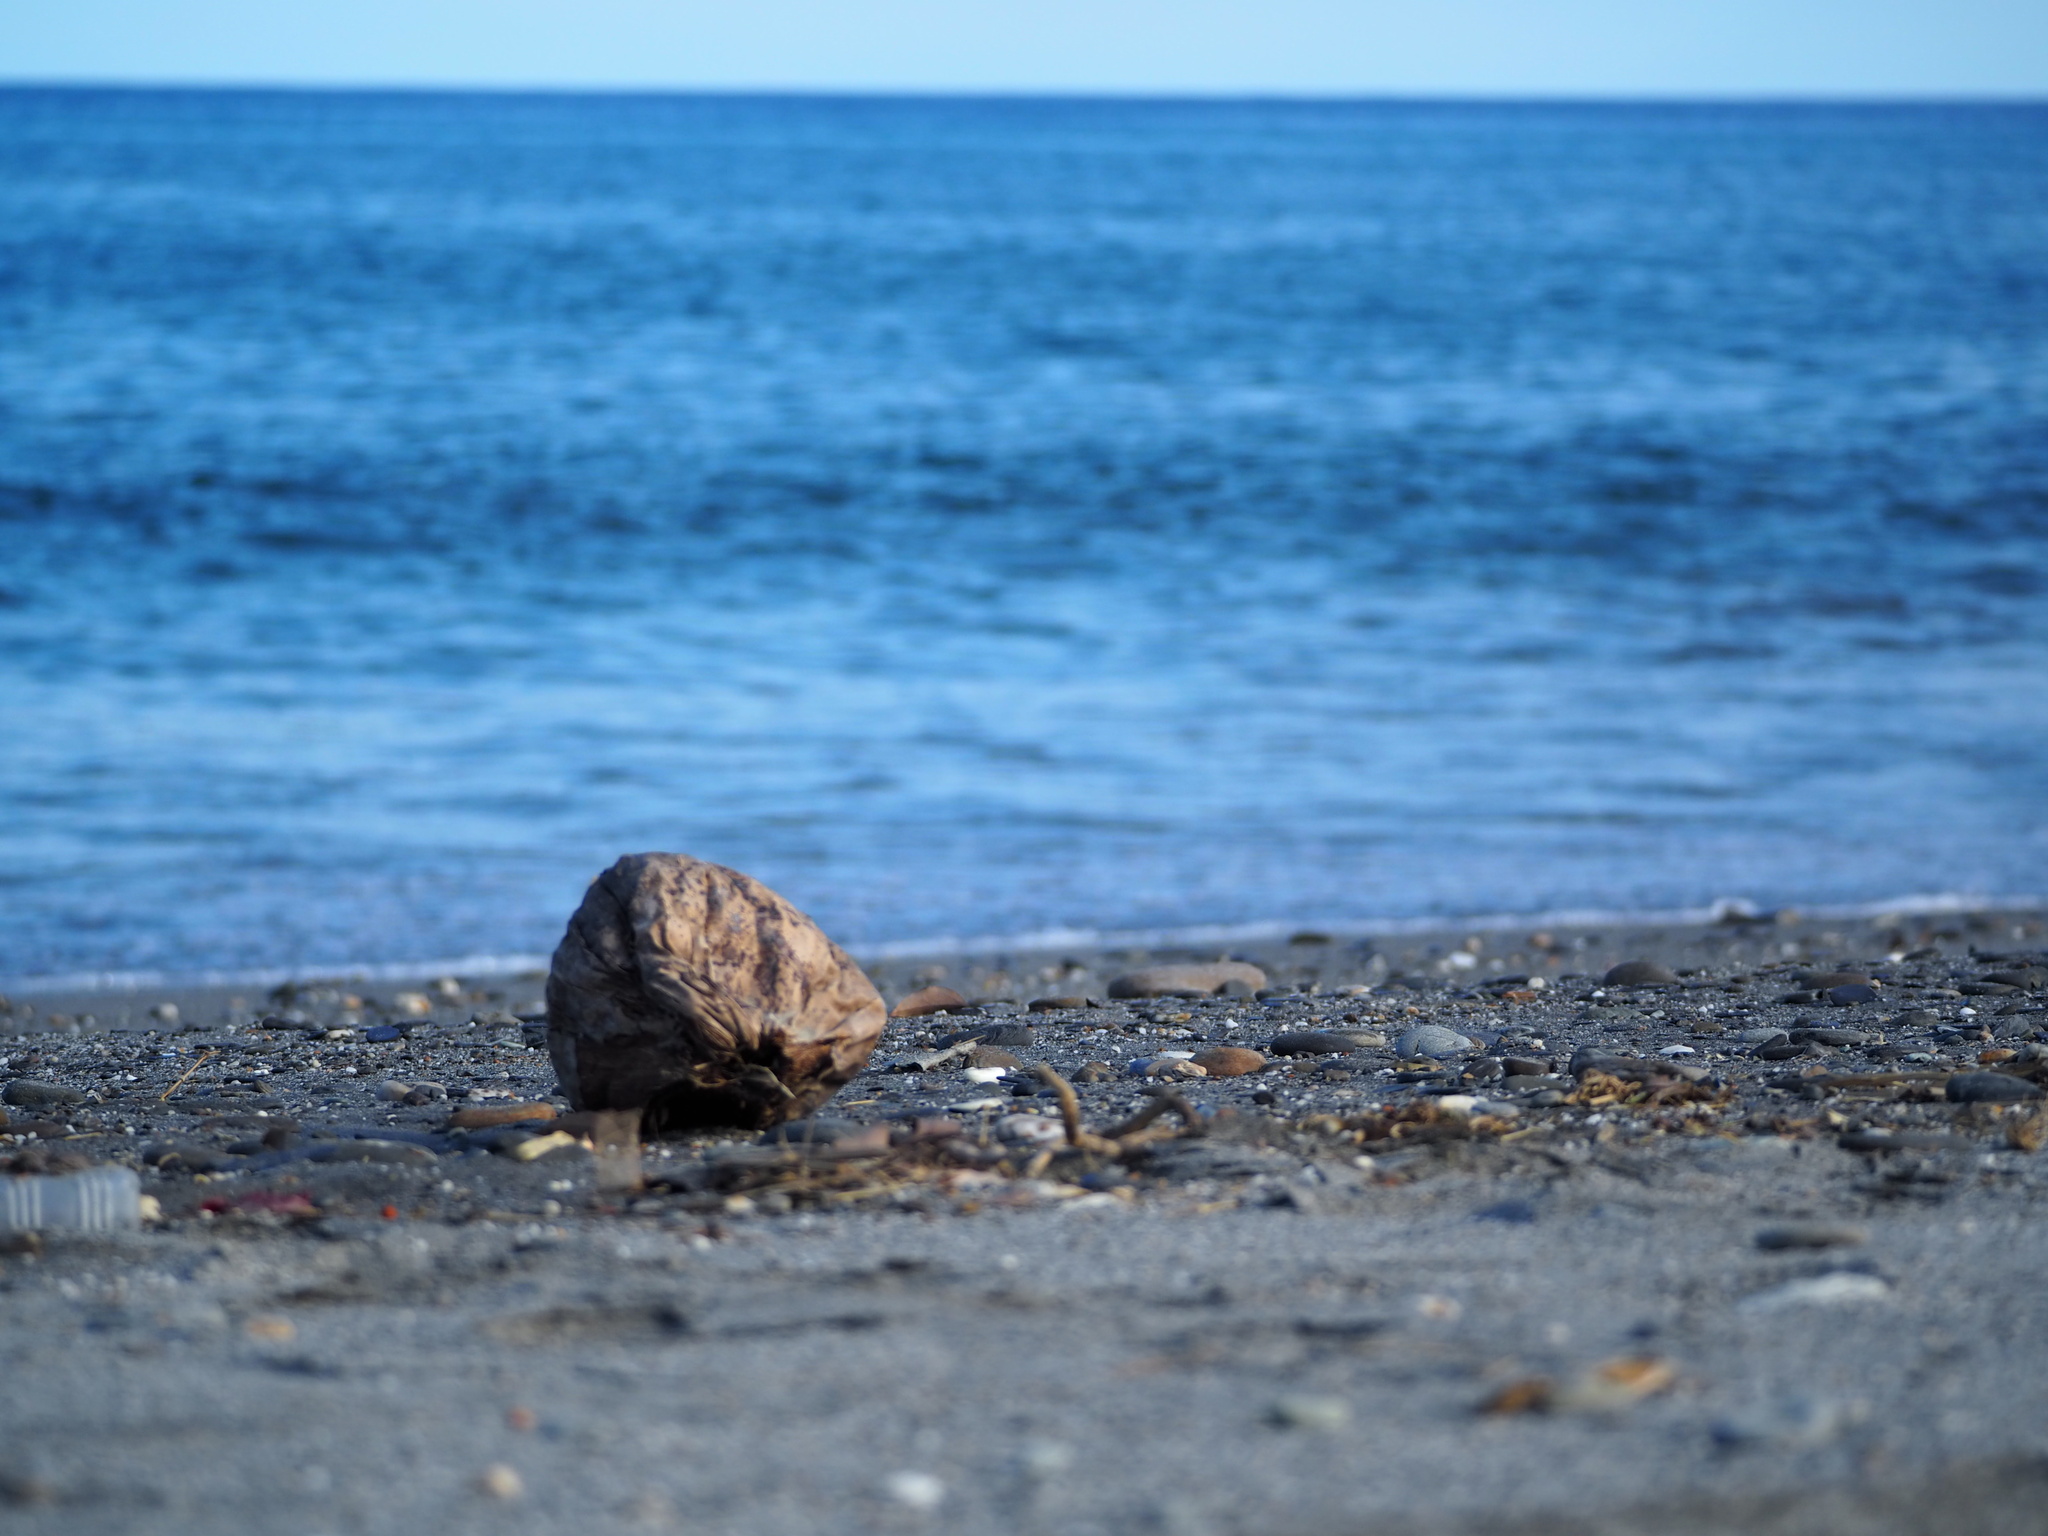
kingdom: Plantae
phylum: Tracheophyta
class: Liliopsida
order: Arecales
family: Arecaceae
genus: Cocos
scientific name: Cocos nucifera
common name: Coconut palm
